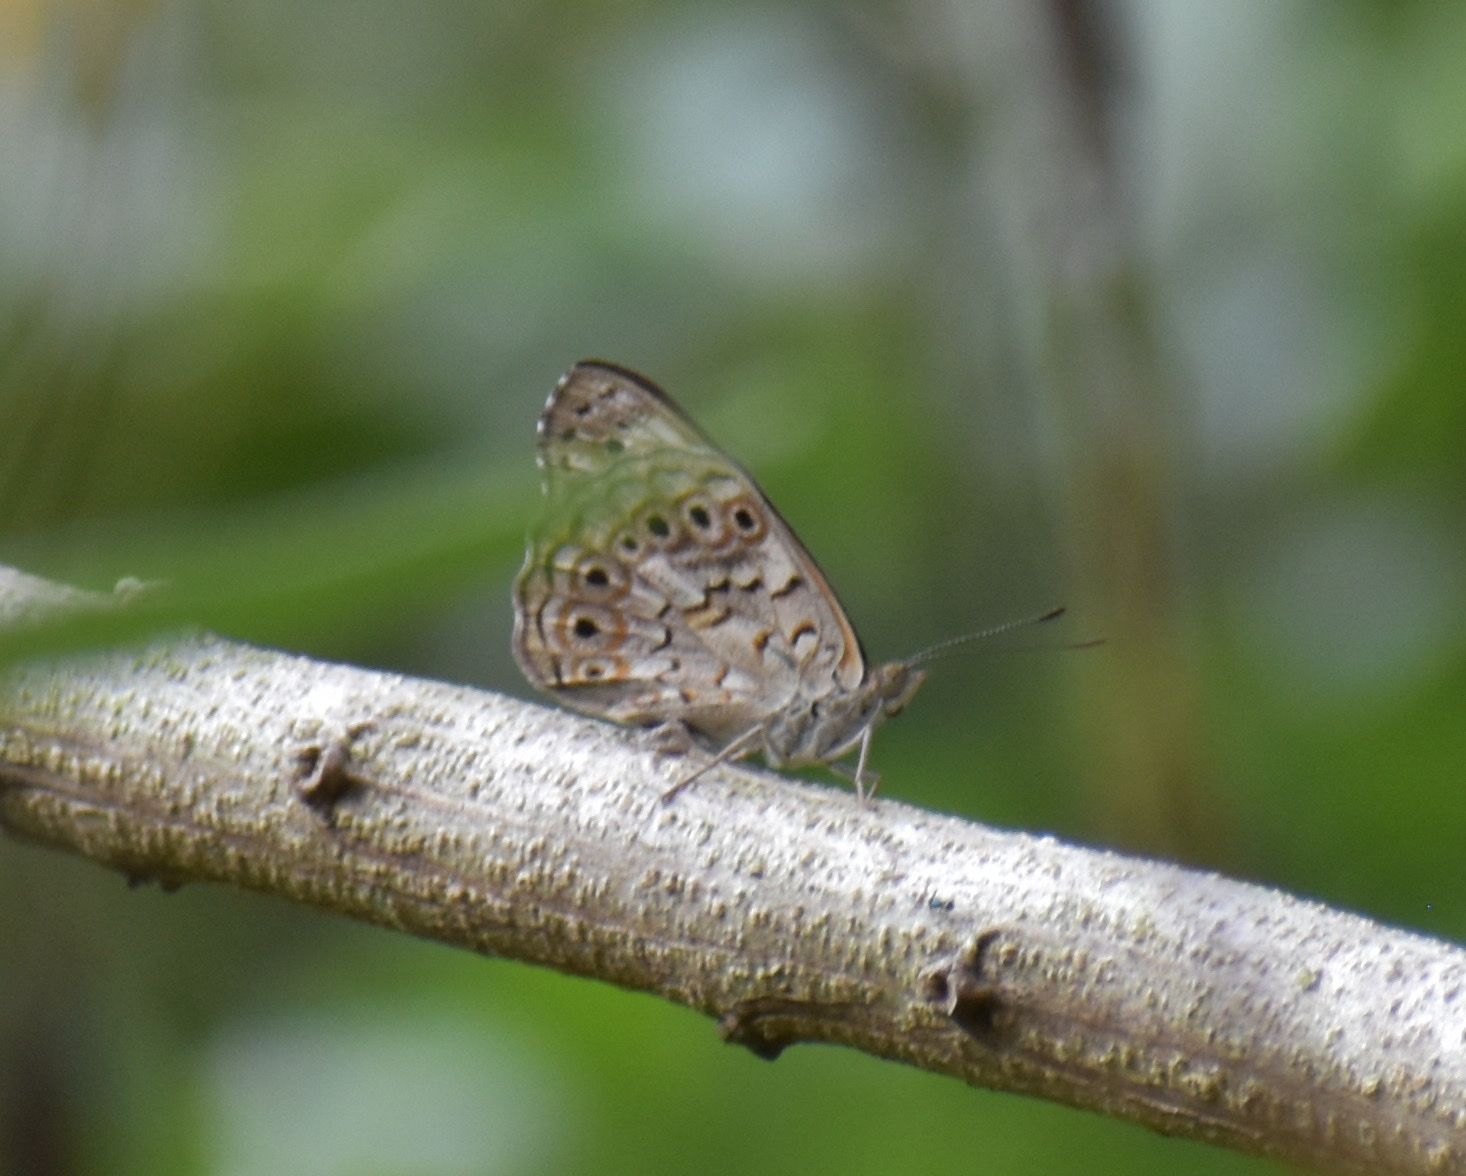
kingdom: Animalia
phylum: Arthropoda
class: Insecta
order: Lepidoptera
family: Nymphalidae
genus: Asterope
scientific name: Asterope boisduvali
